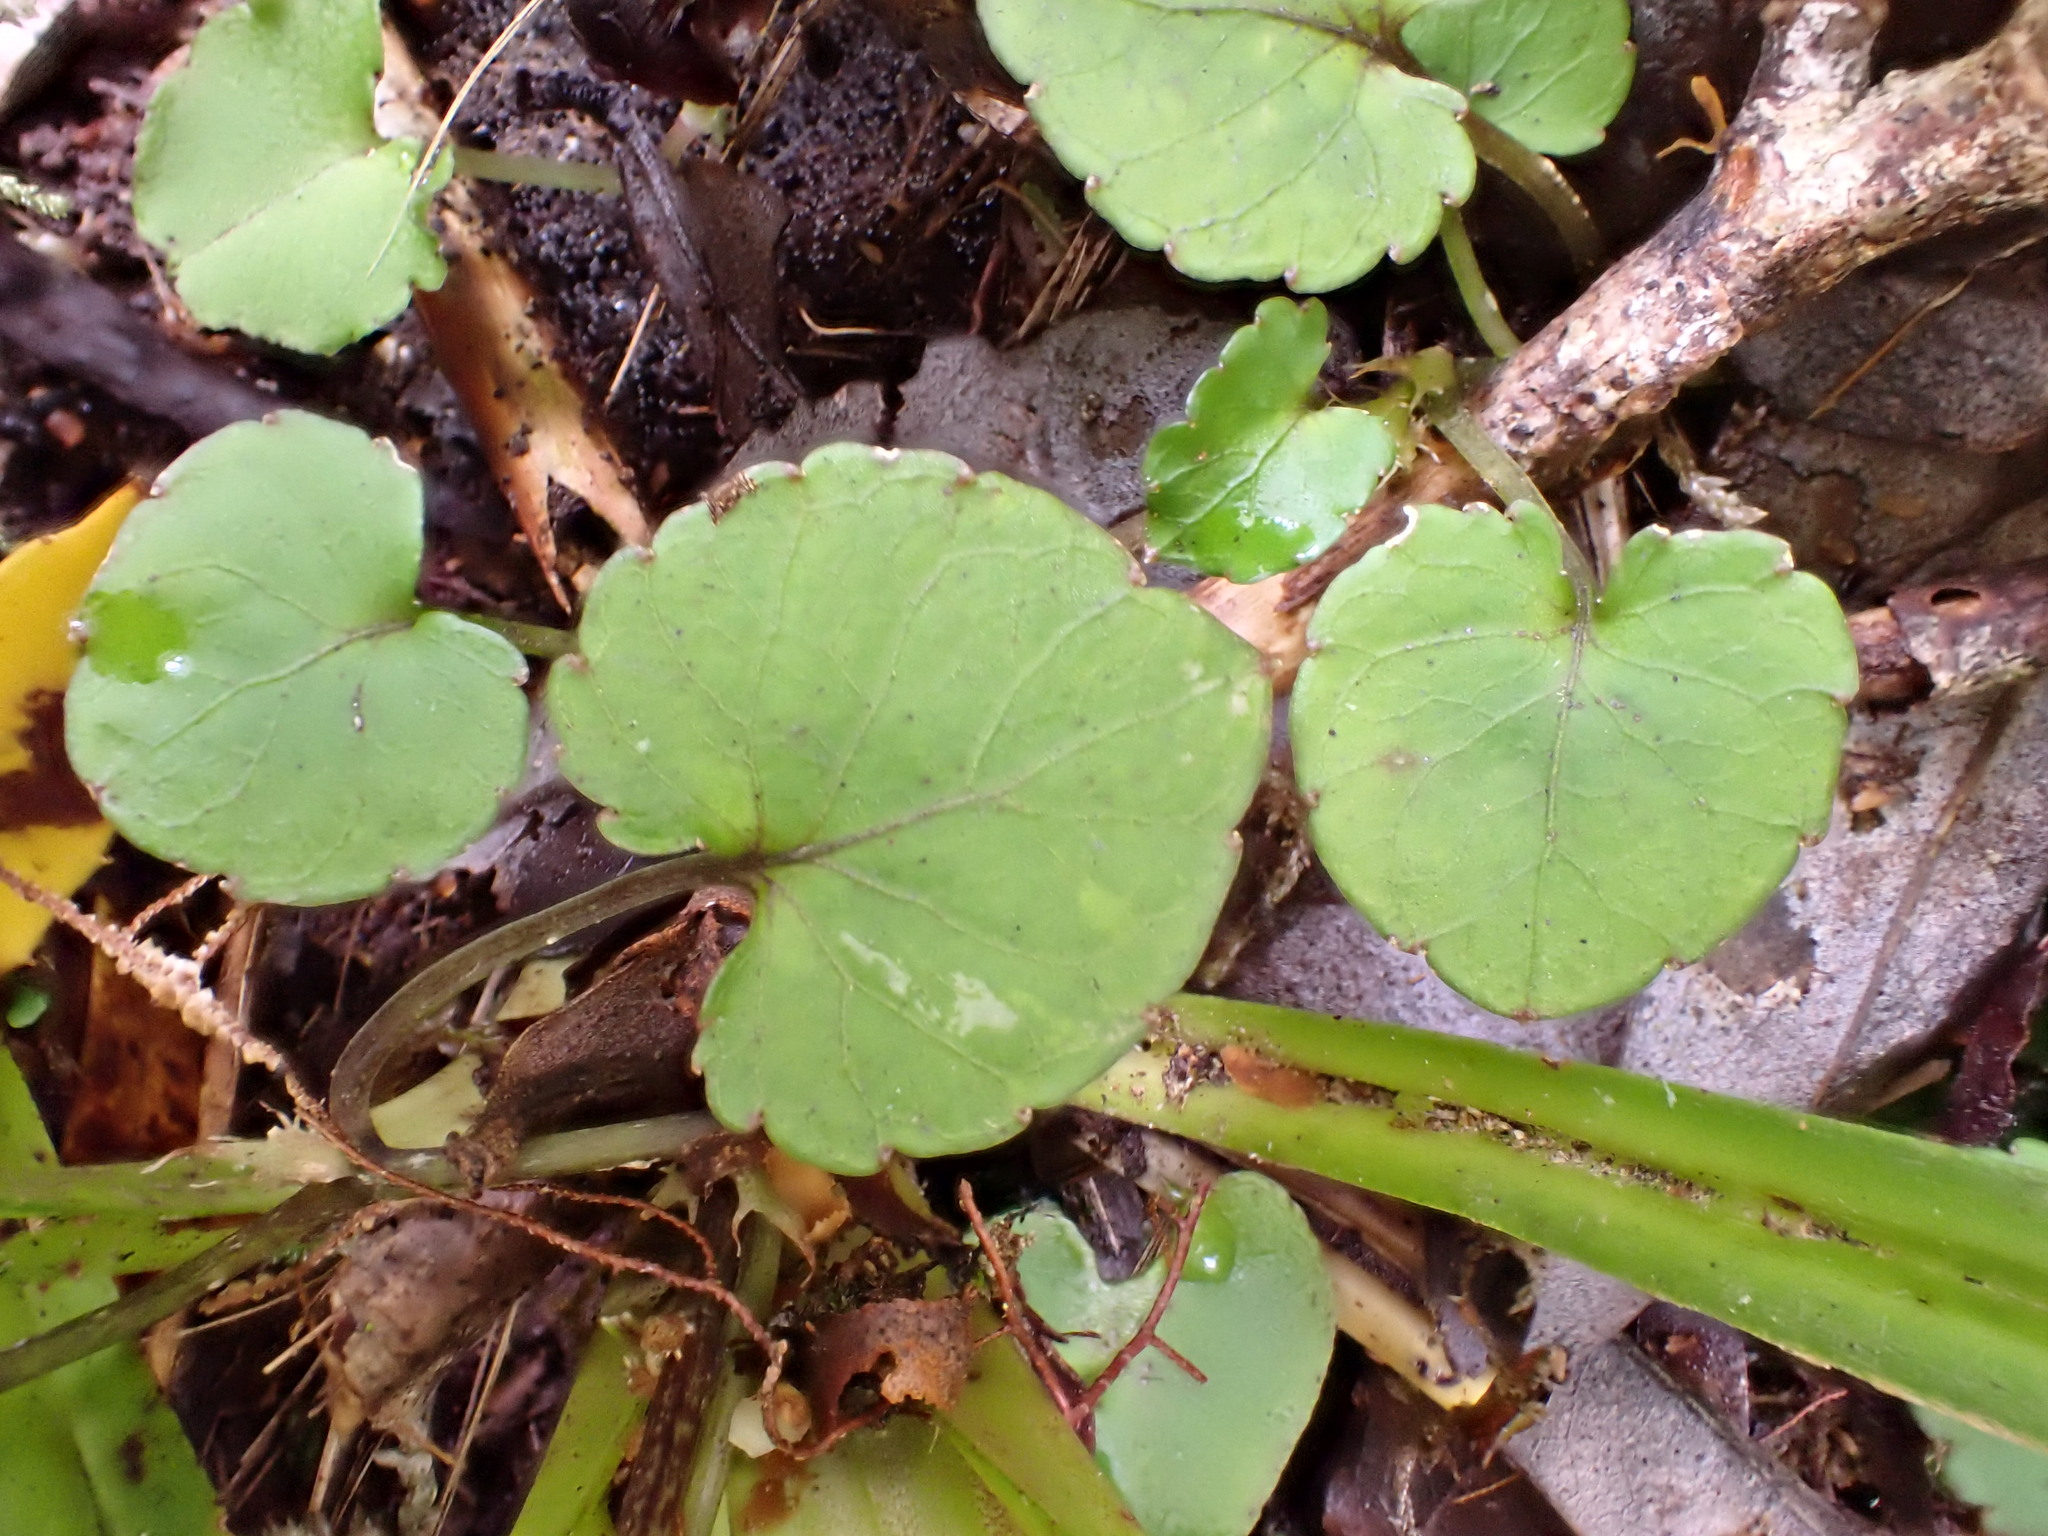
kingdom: Plantae
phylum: Tracheophyta
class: Magnoliopsida
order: Malpighiales
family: Violaceae
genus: Viola
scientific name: Viola filicaulis
